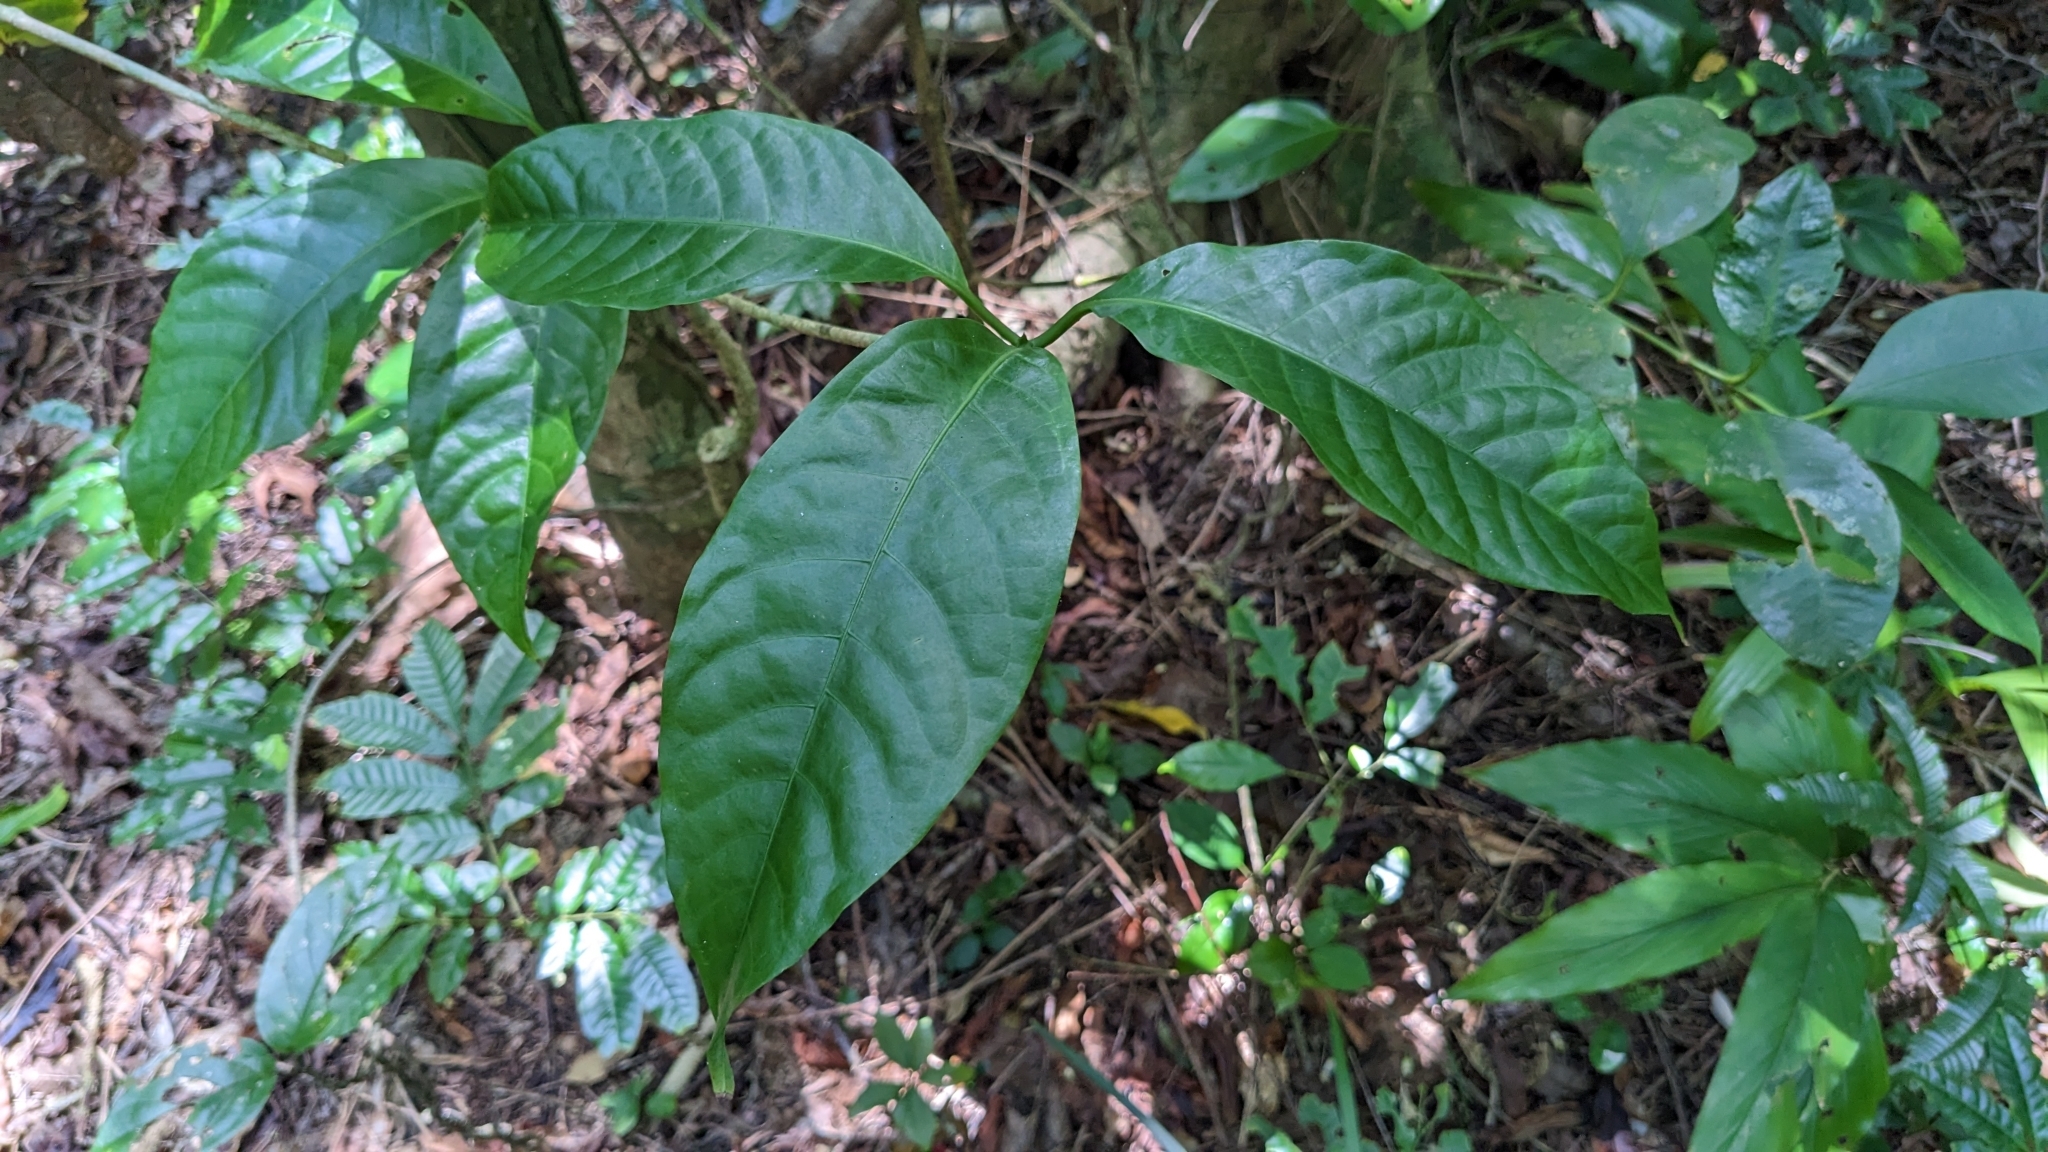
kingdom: Plantae
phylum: Tracheophyta
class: Magnoliopsida
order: Laurales
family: Lauraceae
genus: Dehaasia
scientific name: Dehaasia incrassata
